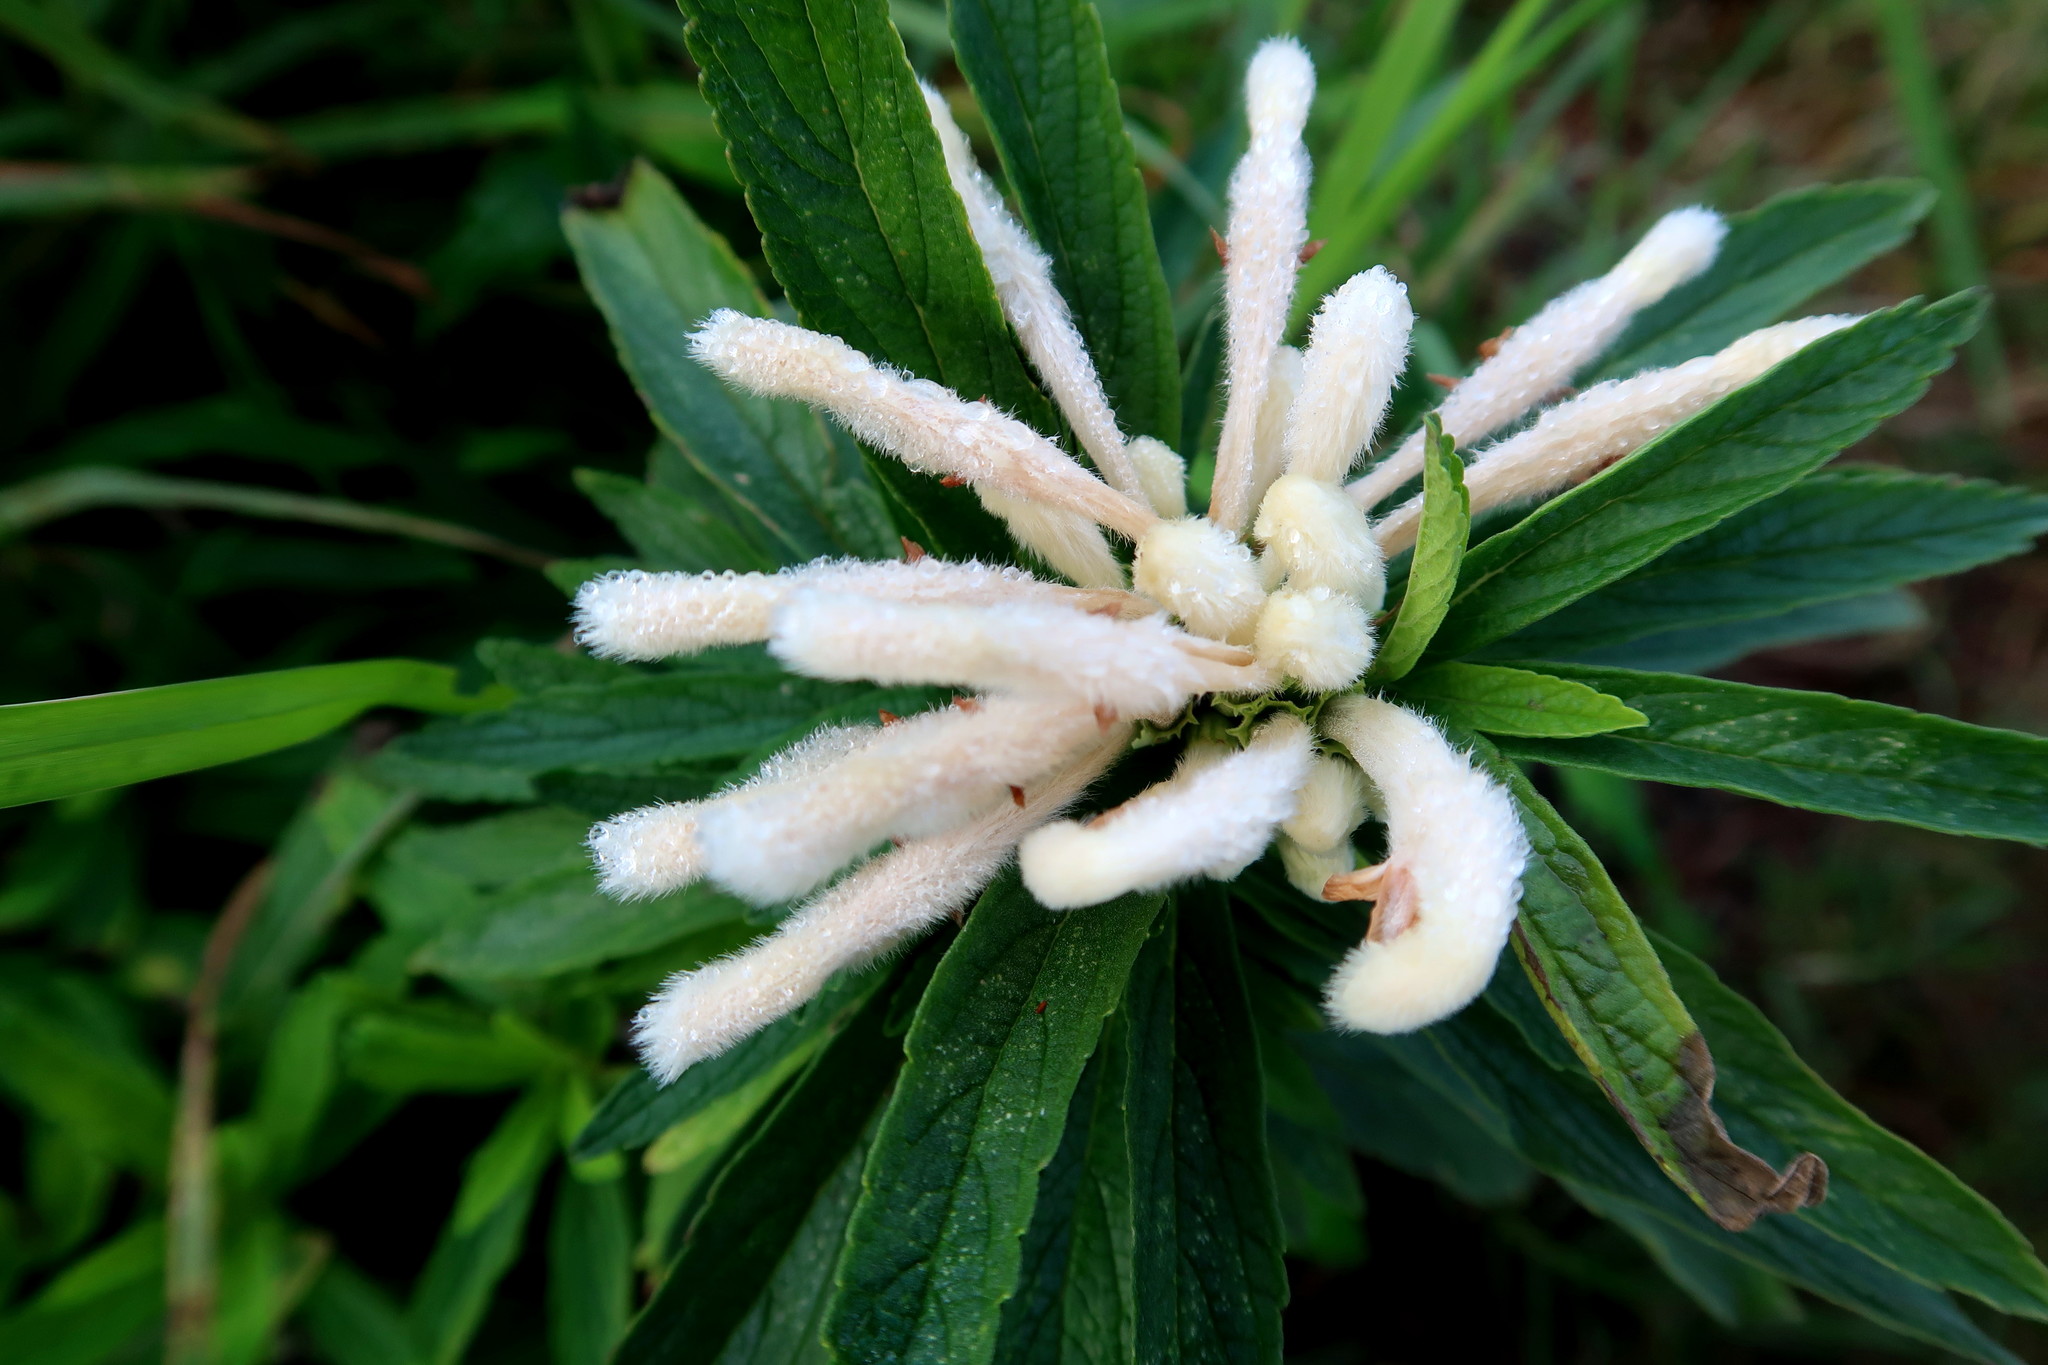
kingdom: Plantae
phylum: Tracheophyta
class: Magnoliopsida
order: Lamiales
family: Lamiaceae
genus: Leonotis
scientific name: Leonotis leonurus
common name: Lion's ear
